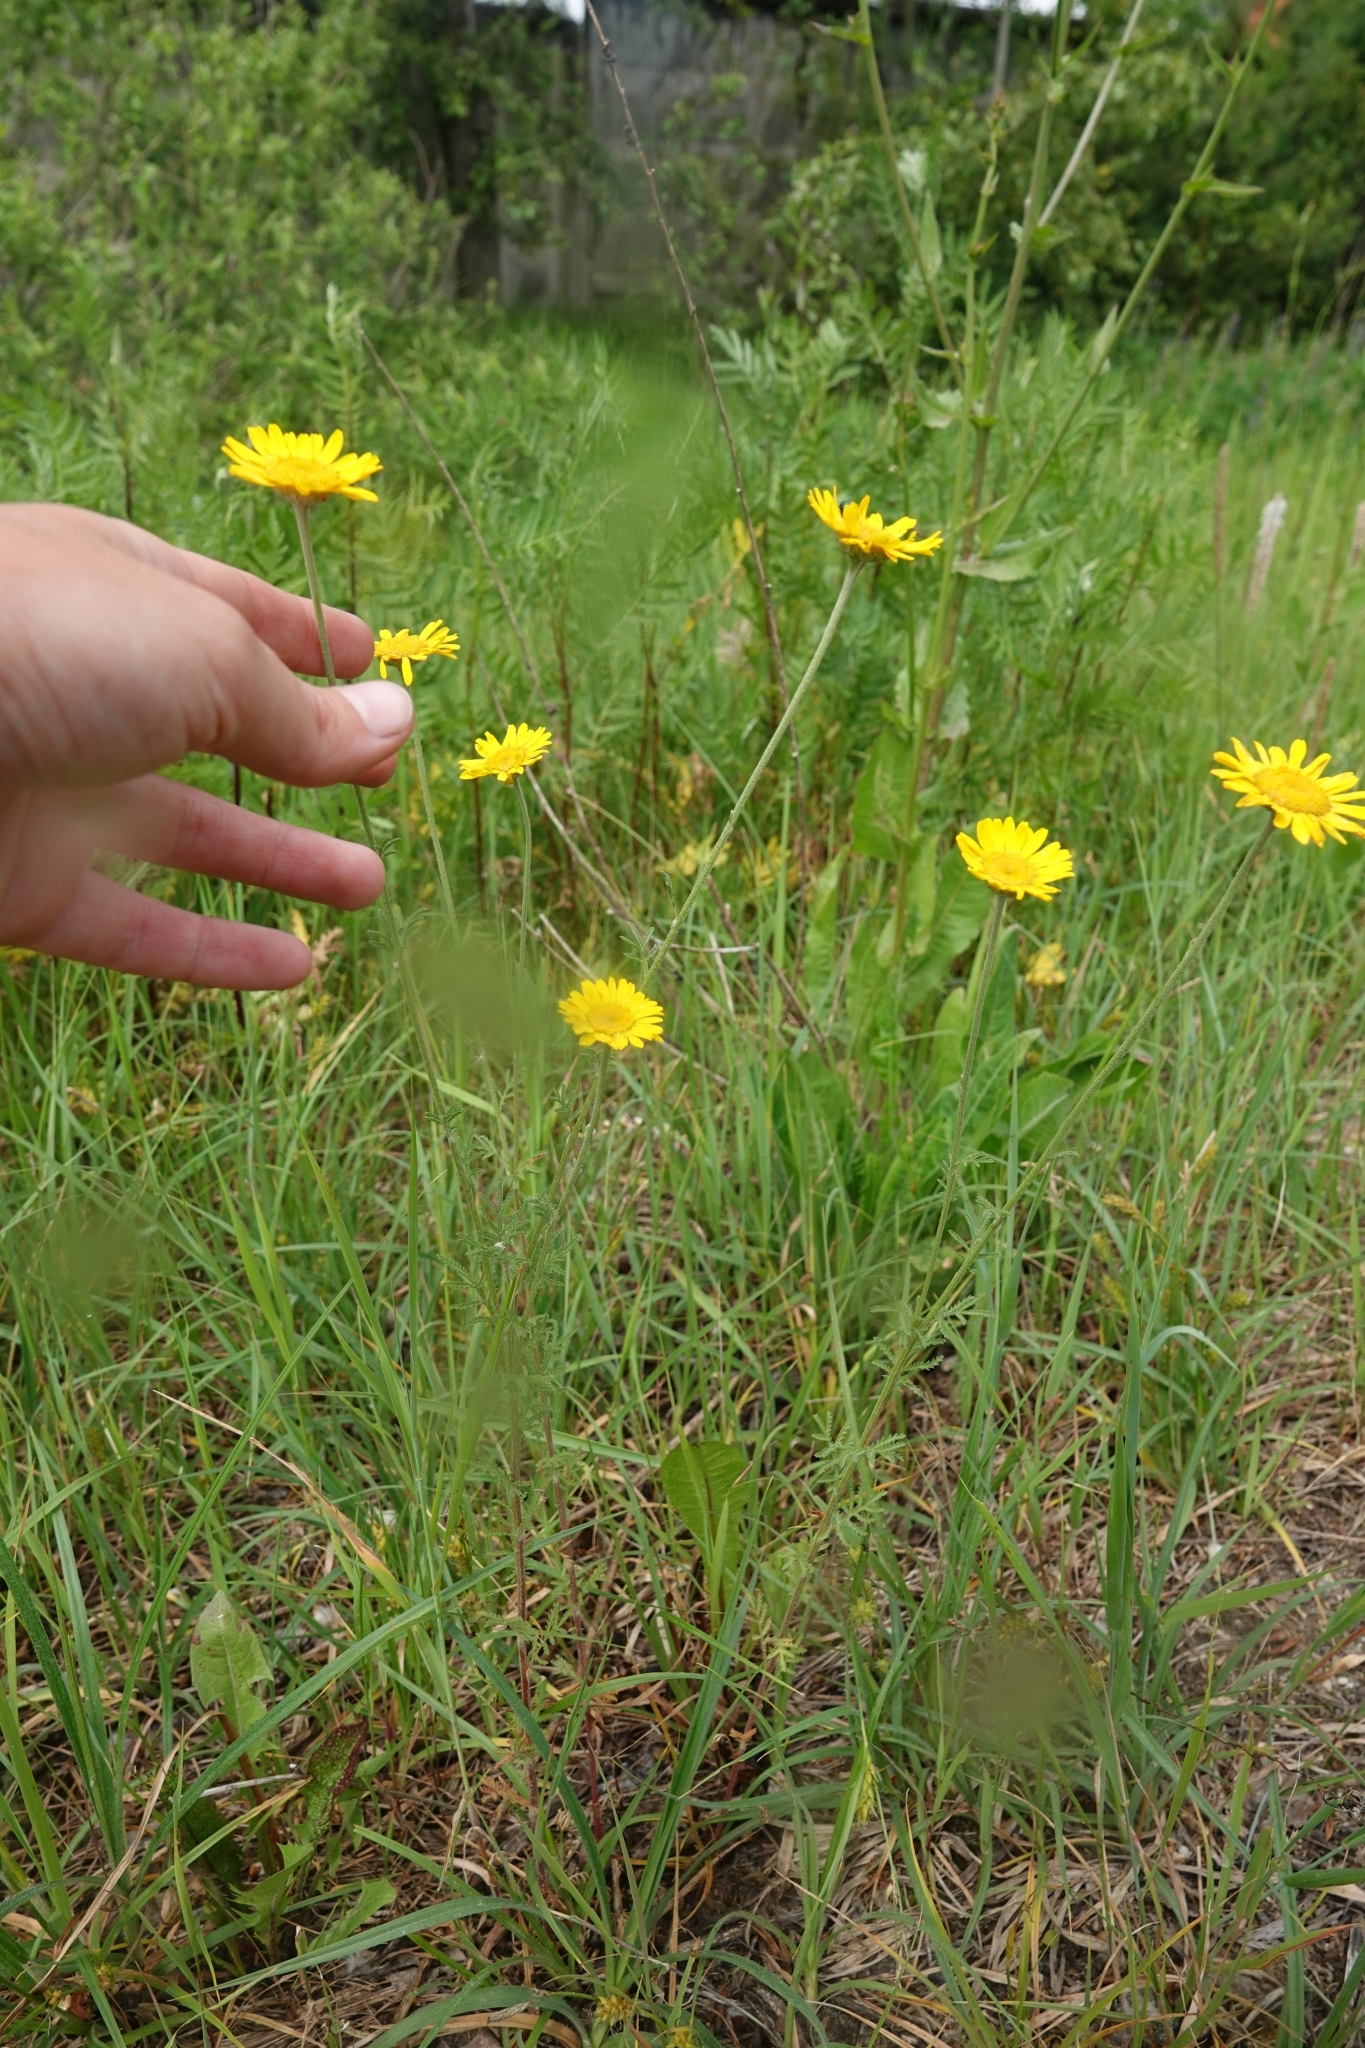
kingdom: Plantae
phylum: Tracheophyta
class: Magnoliopsida
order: Asterales
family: Asteraceae
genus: Cota
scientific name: Cota tinctoria
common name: Golden chamomile
